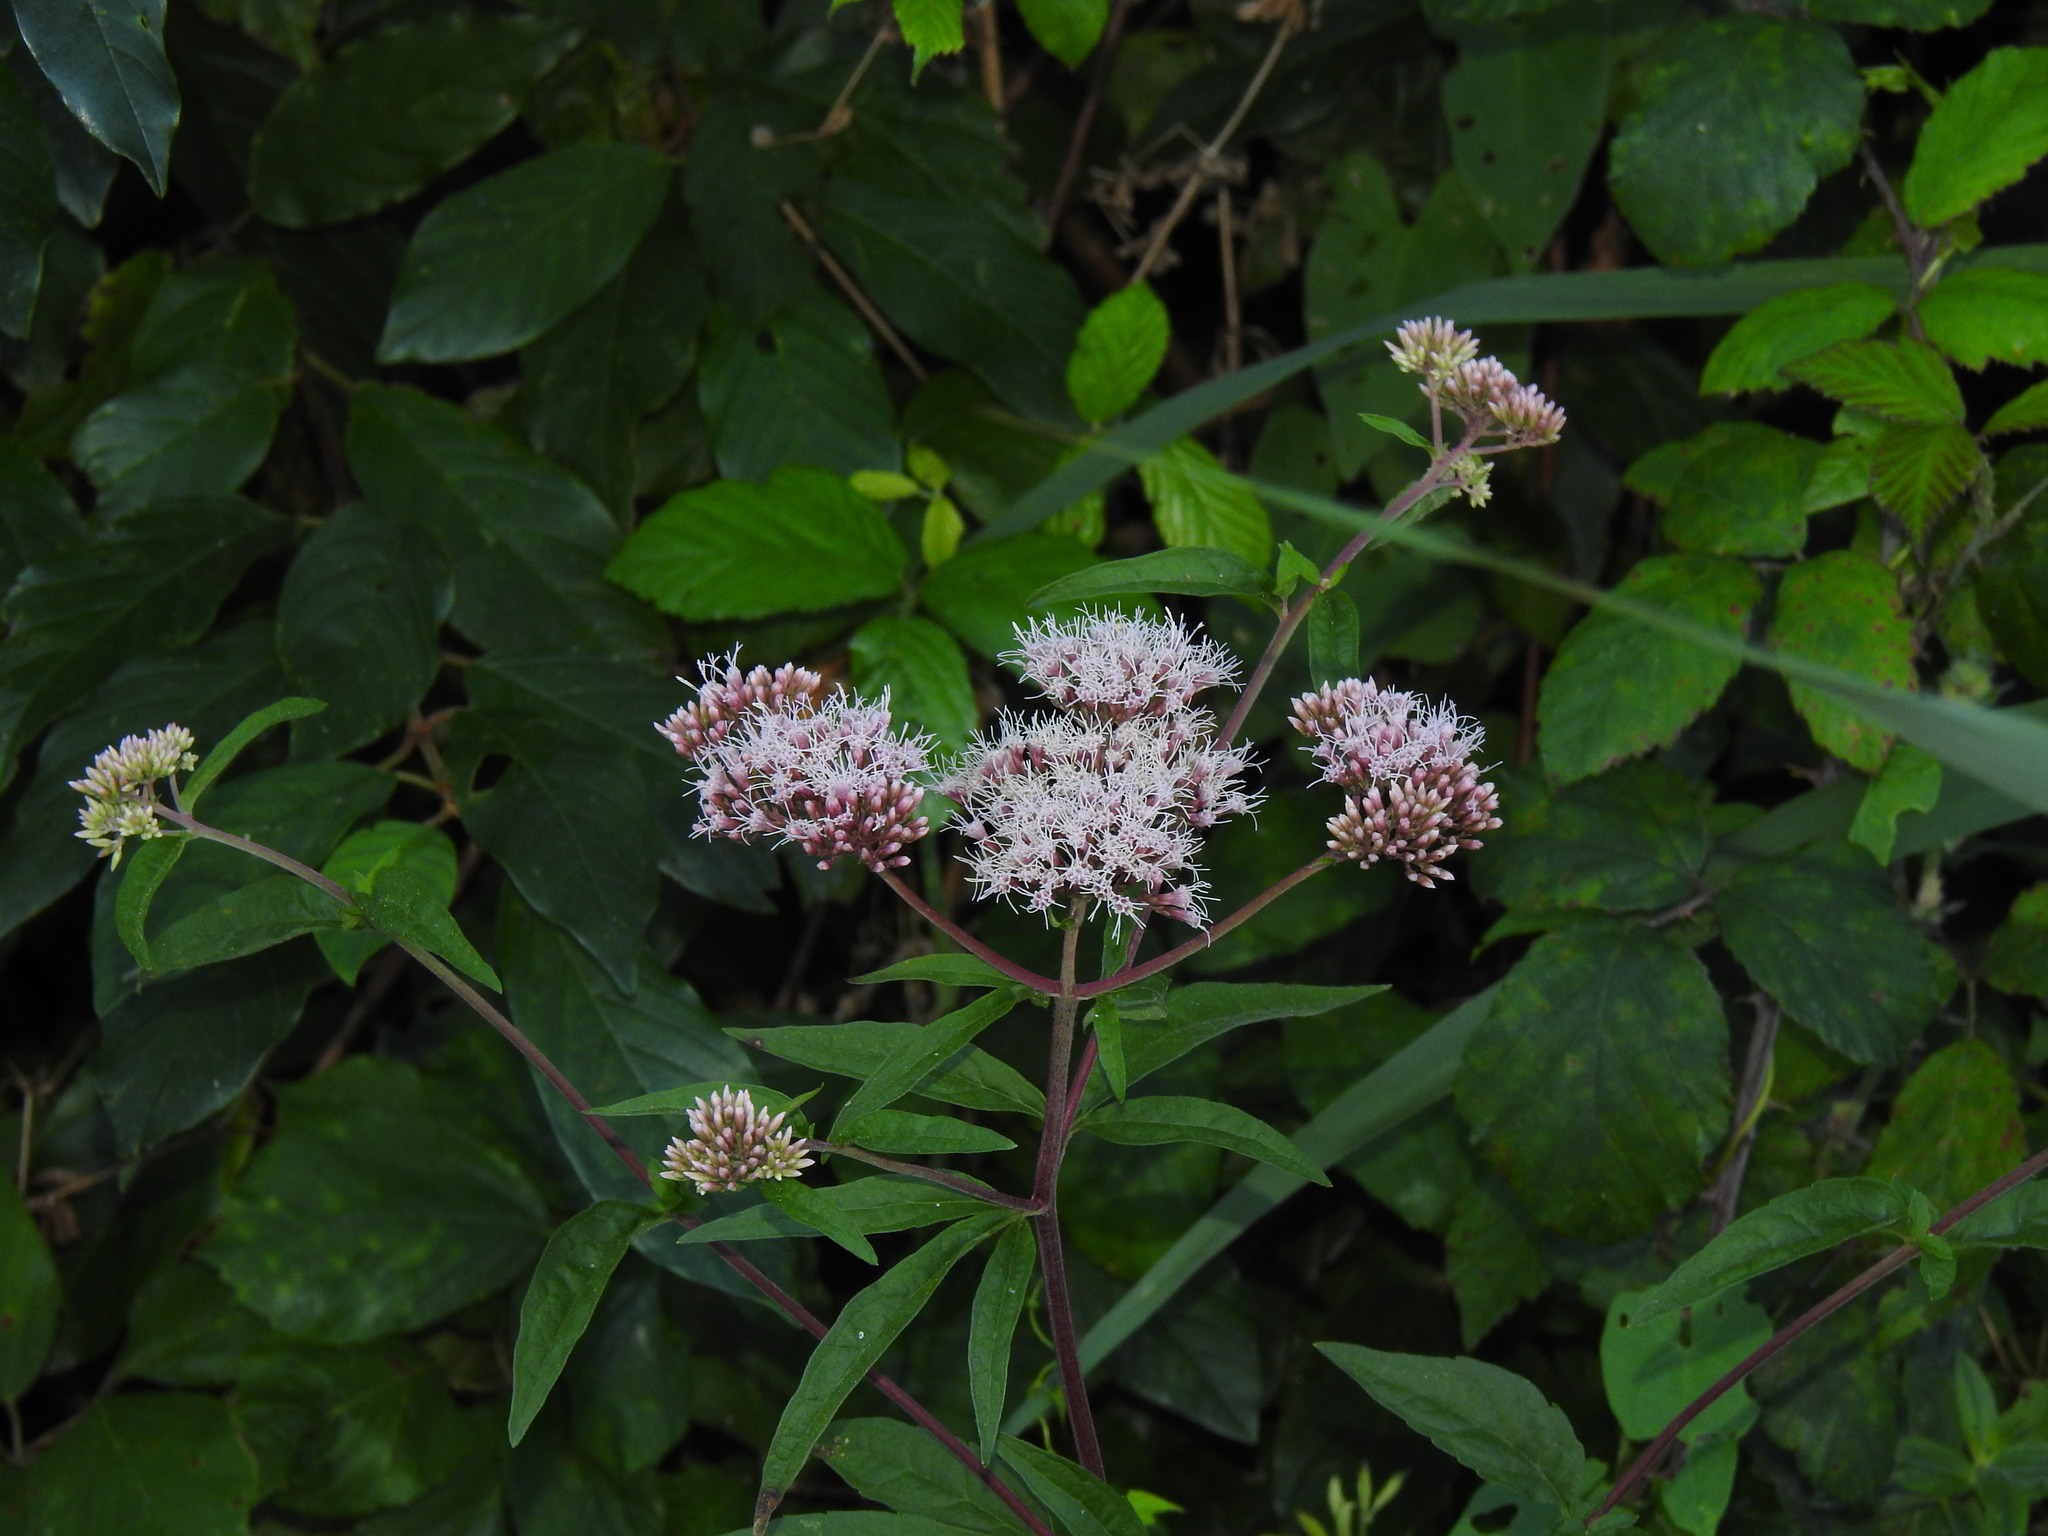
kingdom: Plantae
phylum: Tracheophyta
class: Magnoliopsida
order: Asterales
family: Asteraceae
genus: Eupatorium
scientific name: Eupatorium cannabinum
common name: Hemp-agrimony
